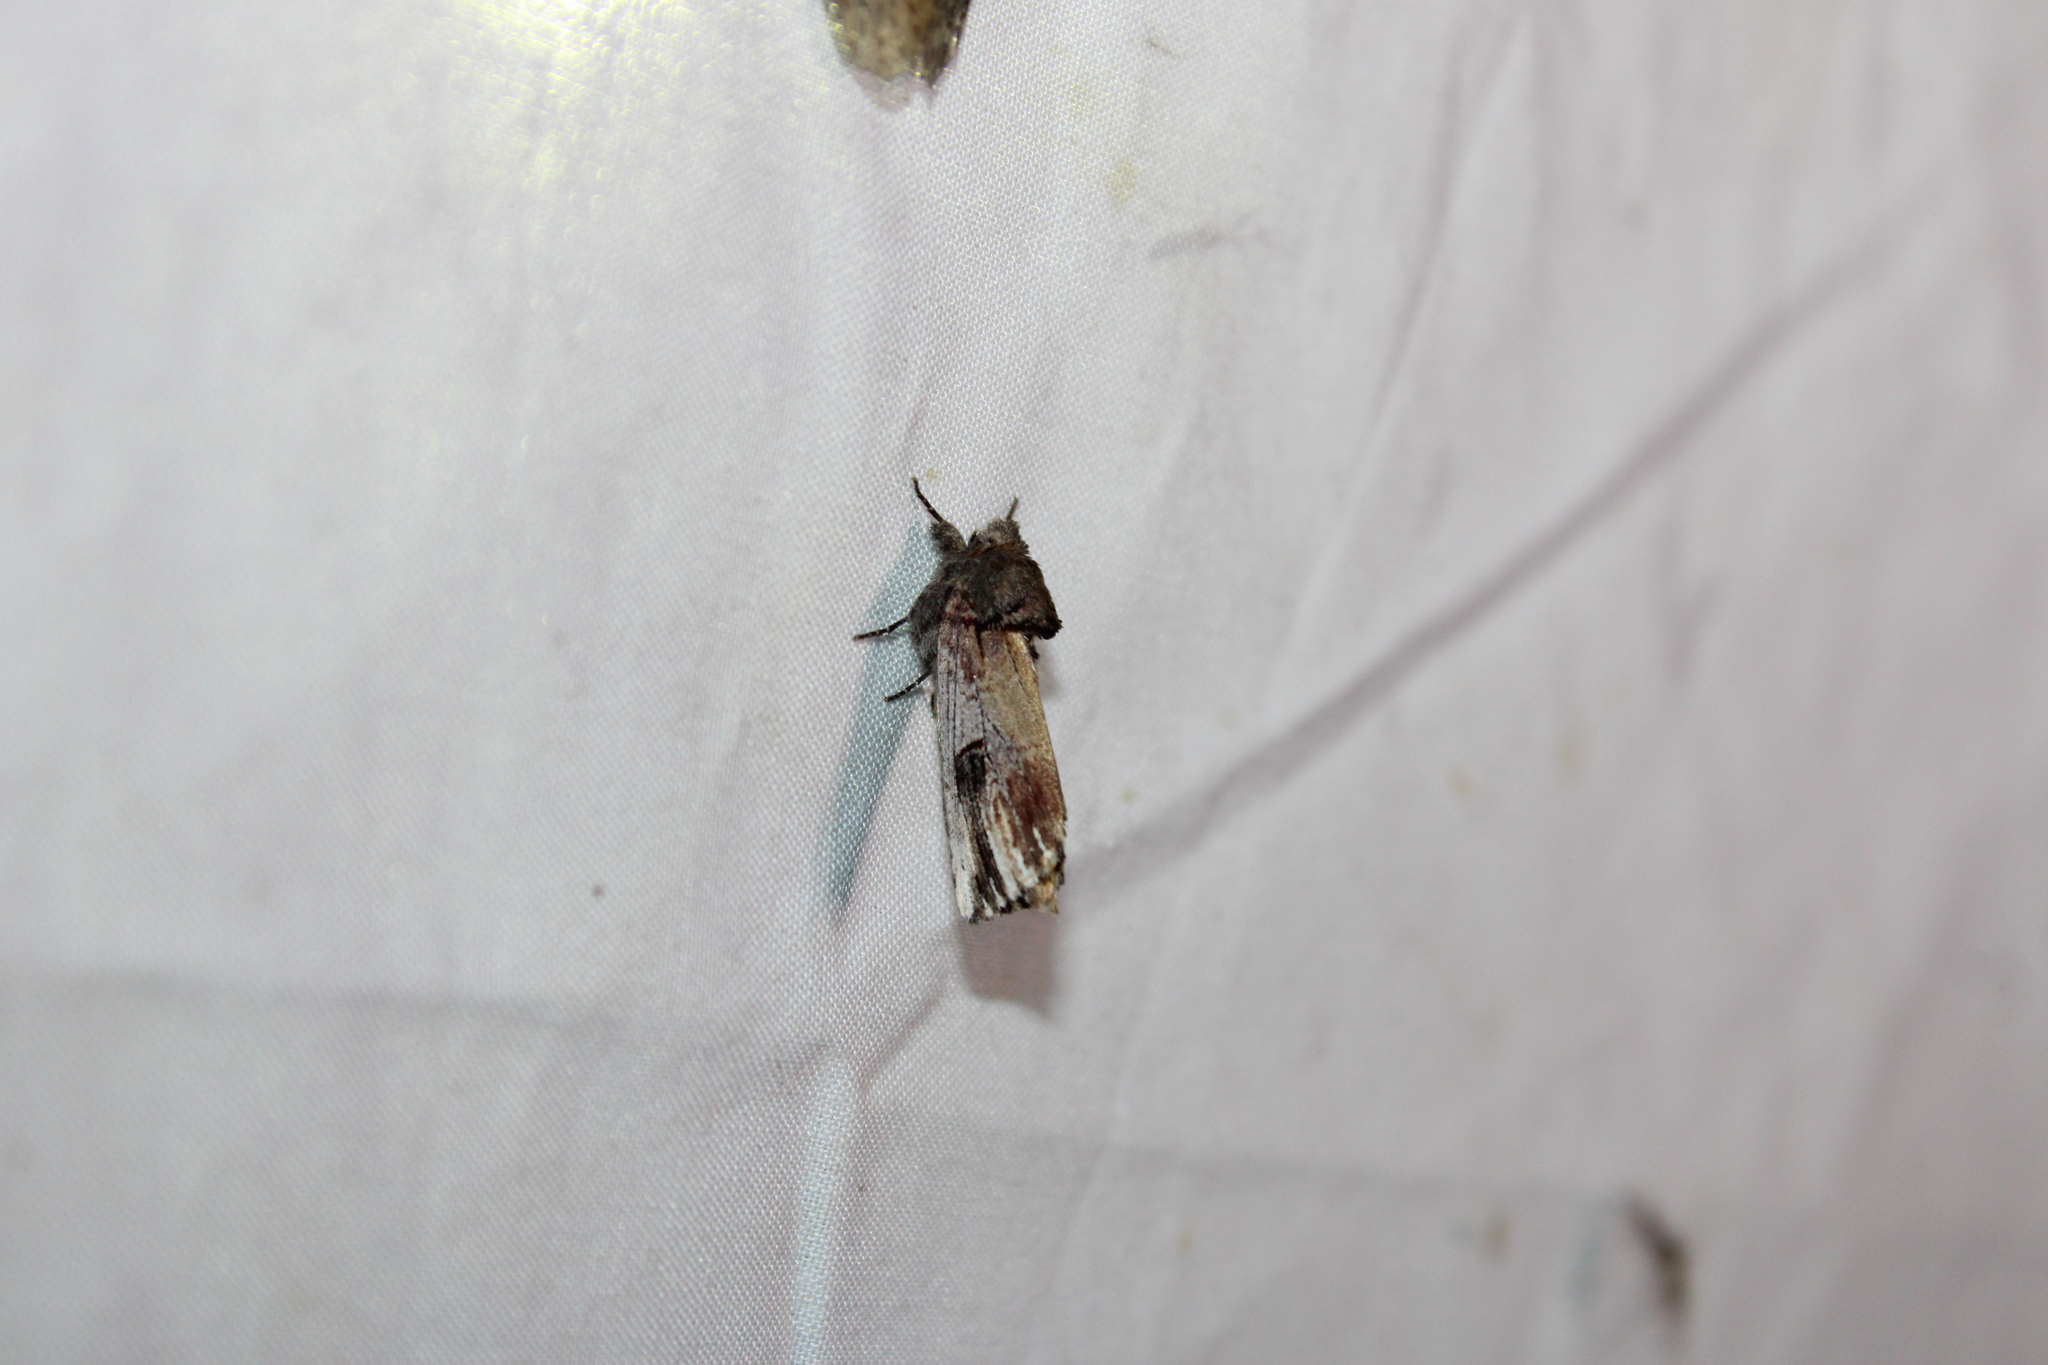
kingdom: Animalia
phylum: Arthropoda
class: Insecta
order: Lepidoptera
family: Notodontidae
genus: Schizura
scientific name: Schizura badia
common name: Chestnut schizura
